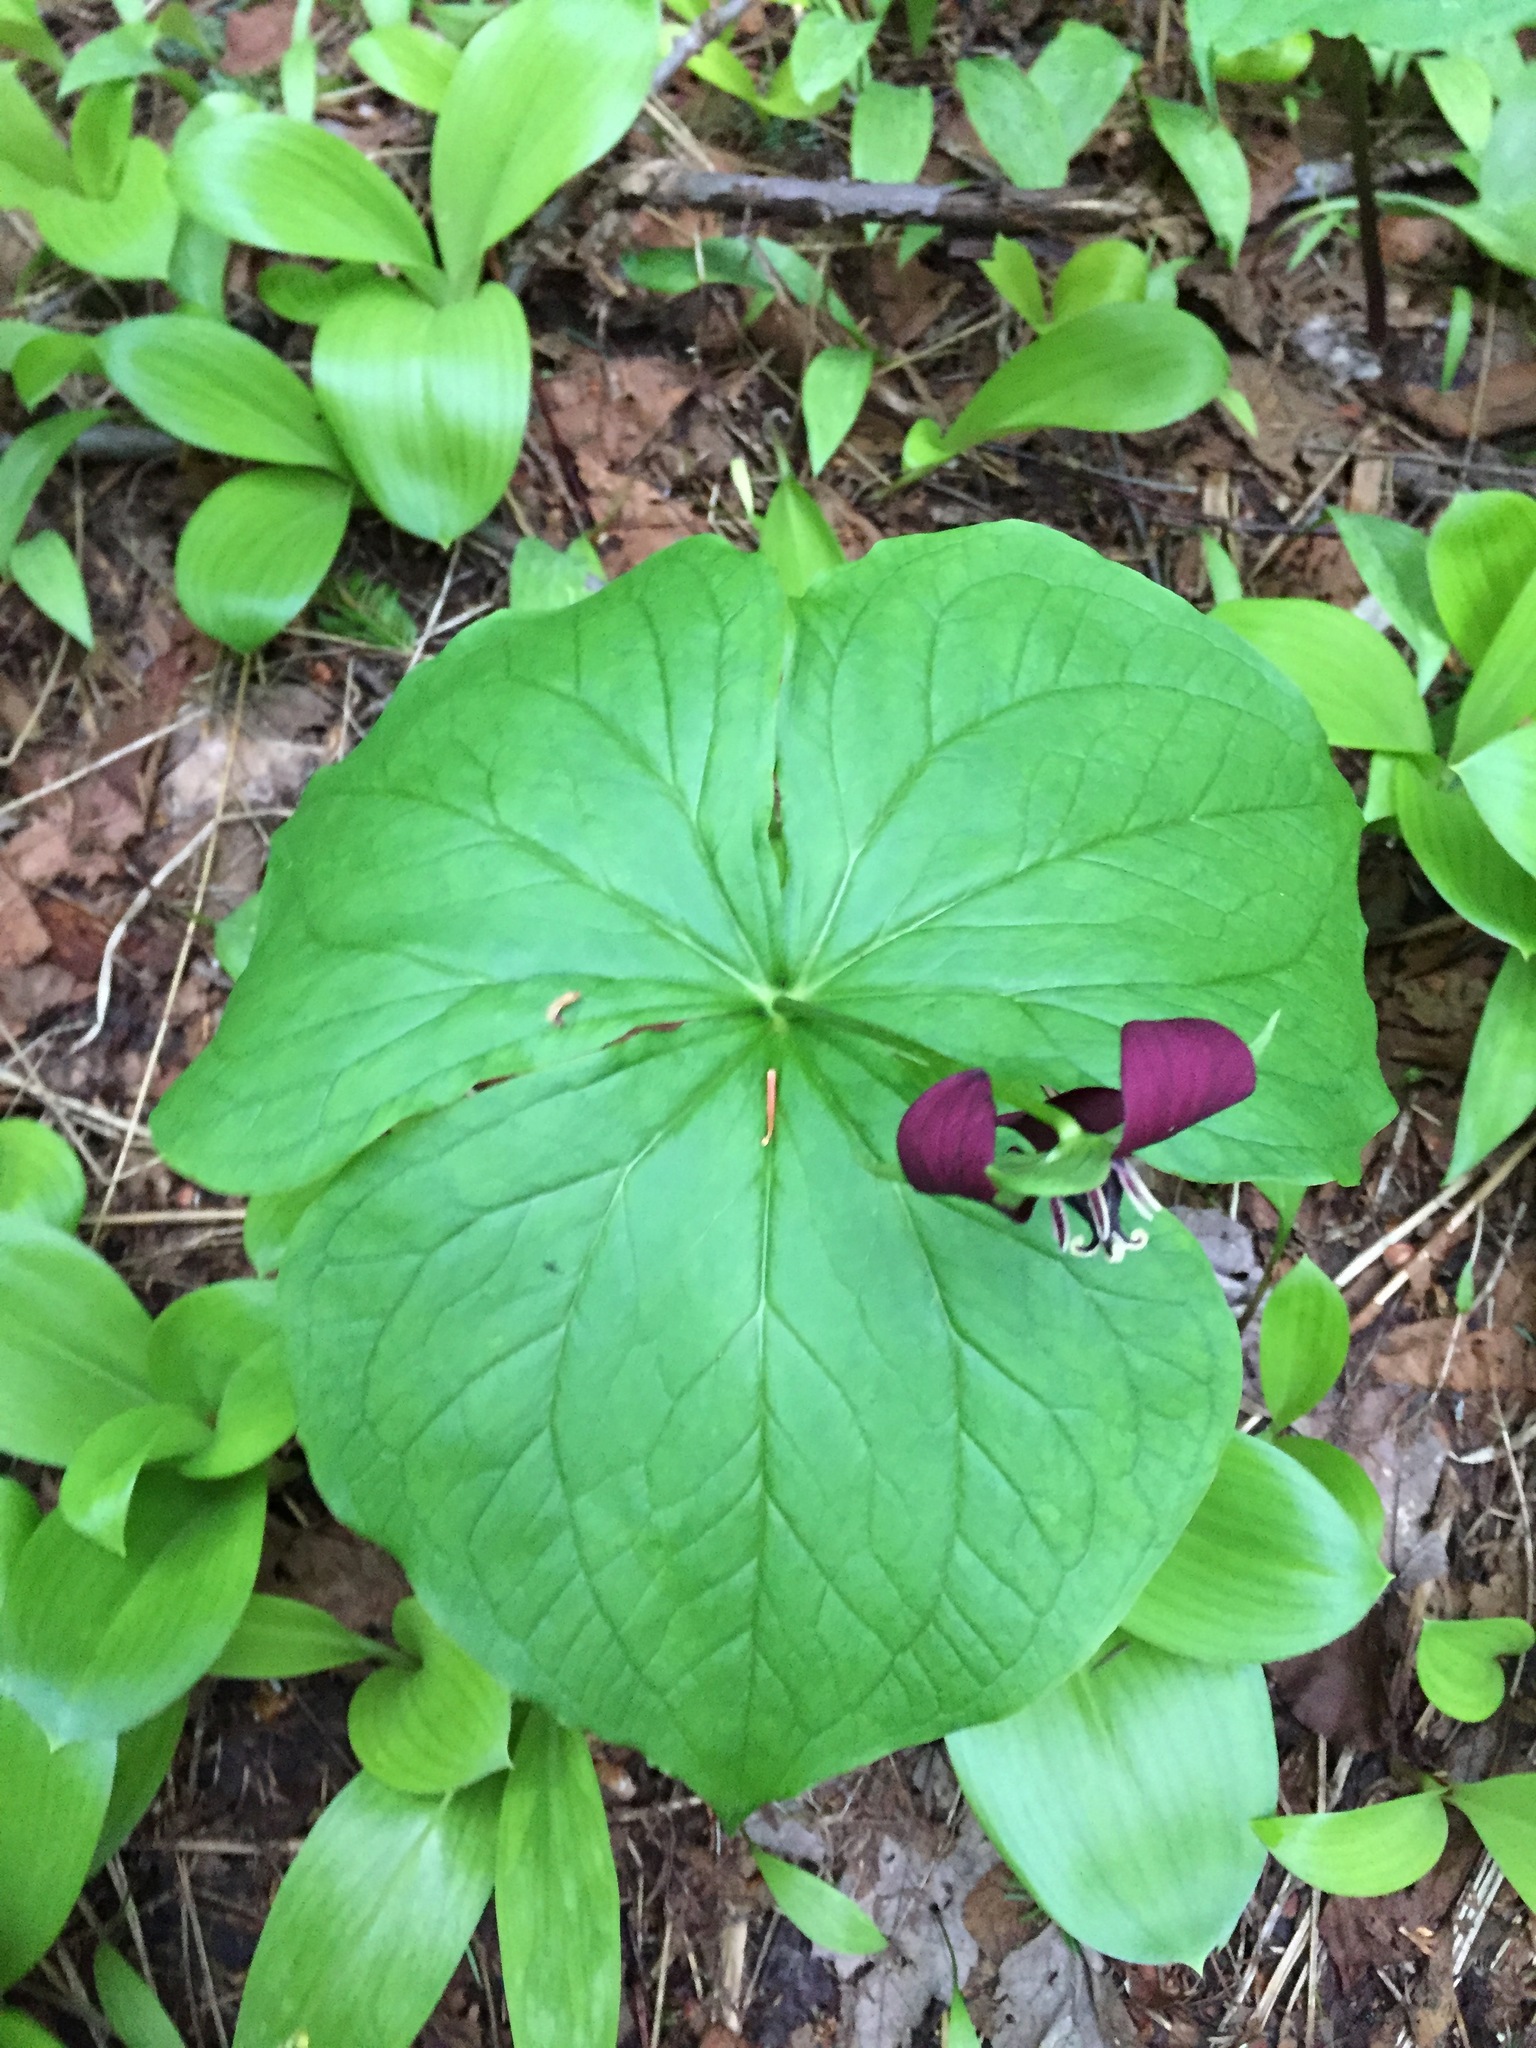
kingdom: Plantae
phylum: Tracheophyta
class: Liliopsida
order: Liliales
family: Melanthiaceae
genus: Trillium
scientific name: Trillium erectum
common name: Purple trillium
